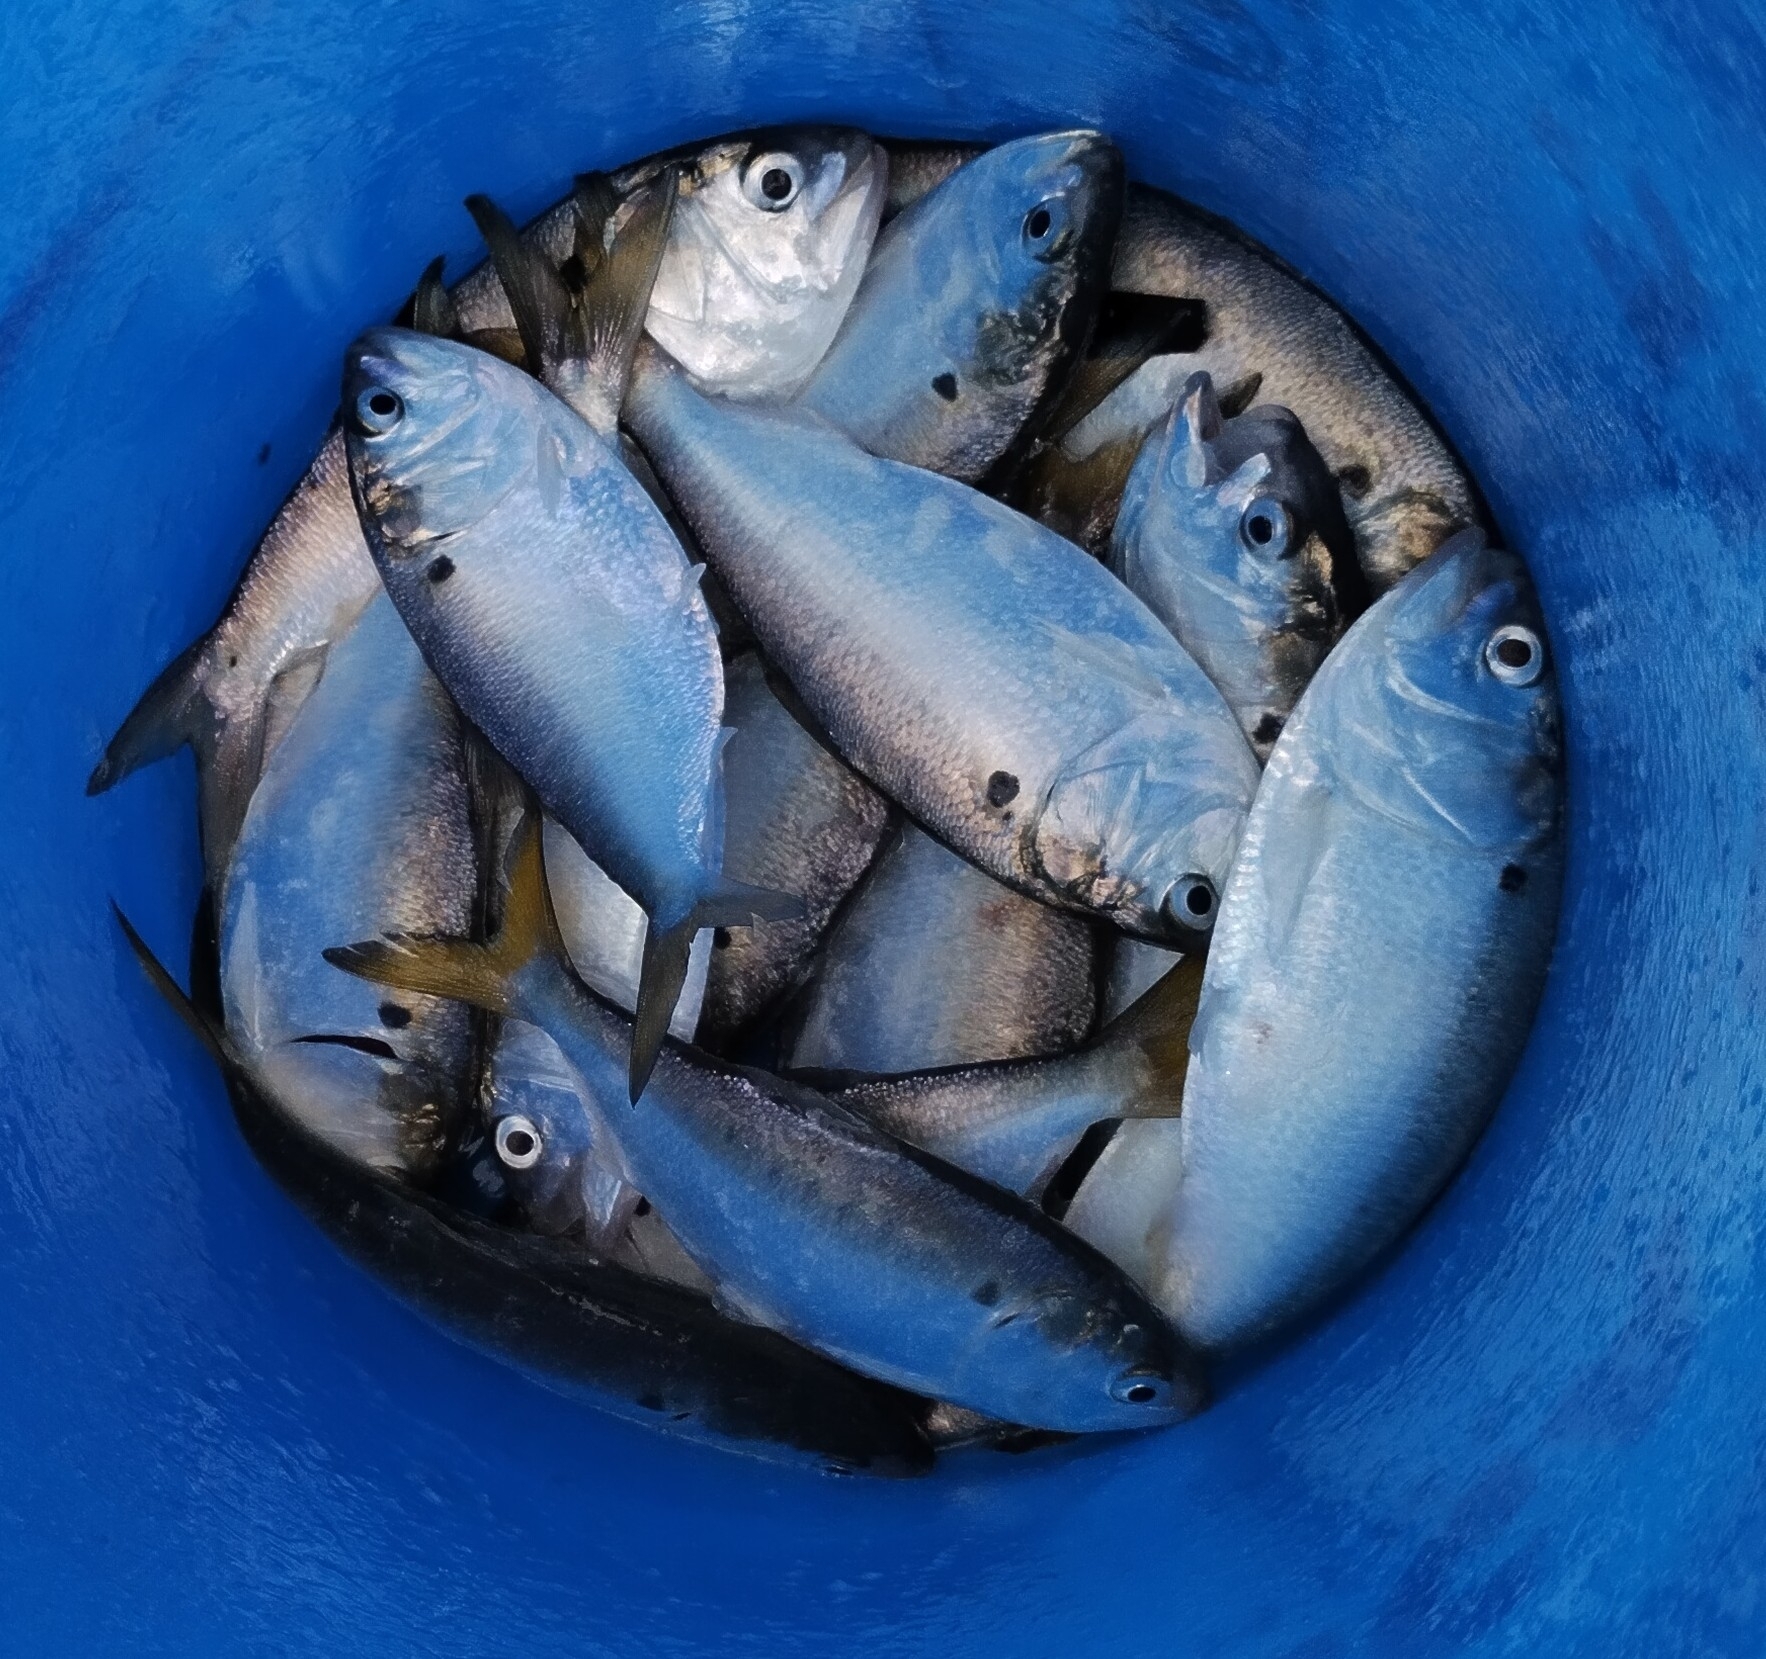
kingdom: Animalia
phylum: Chordata
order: Clupeiformes
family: Clupeidae
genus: Brevoortia
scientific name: Brevoortia patronus
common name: Gulf menhaden
